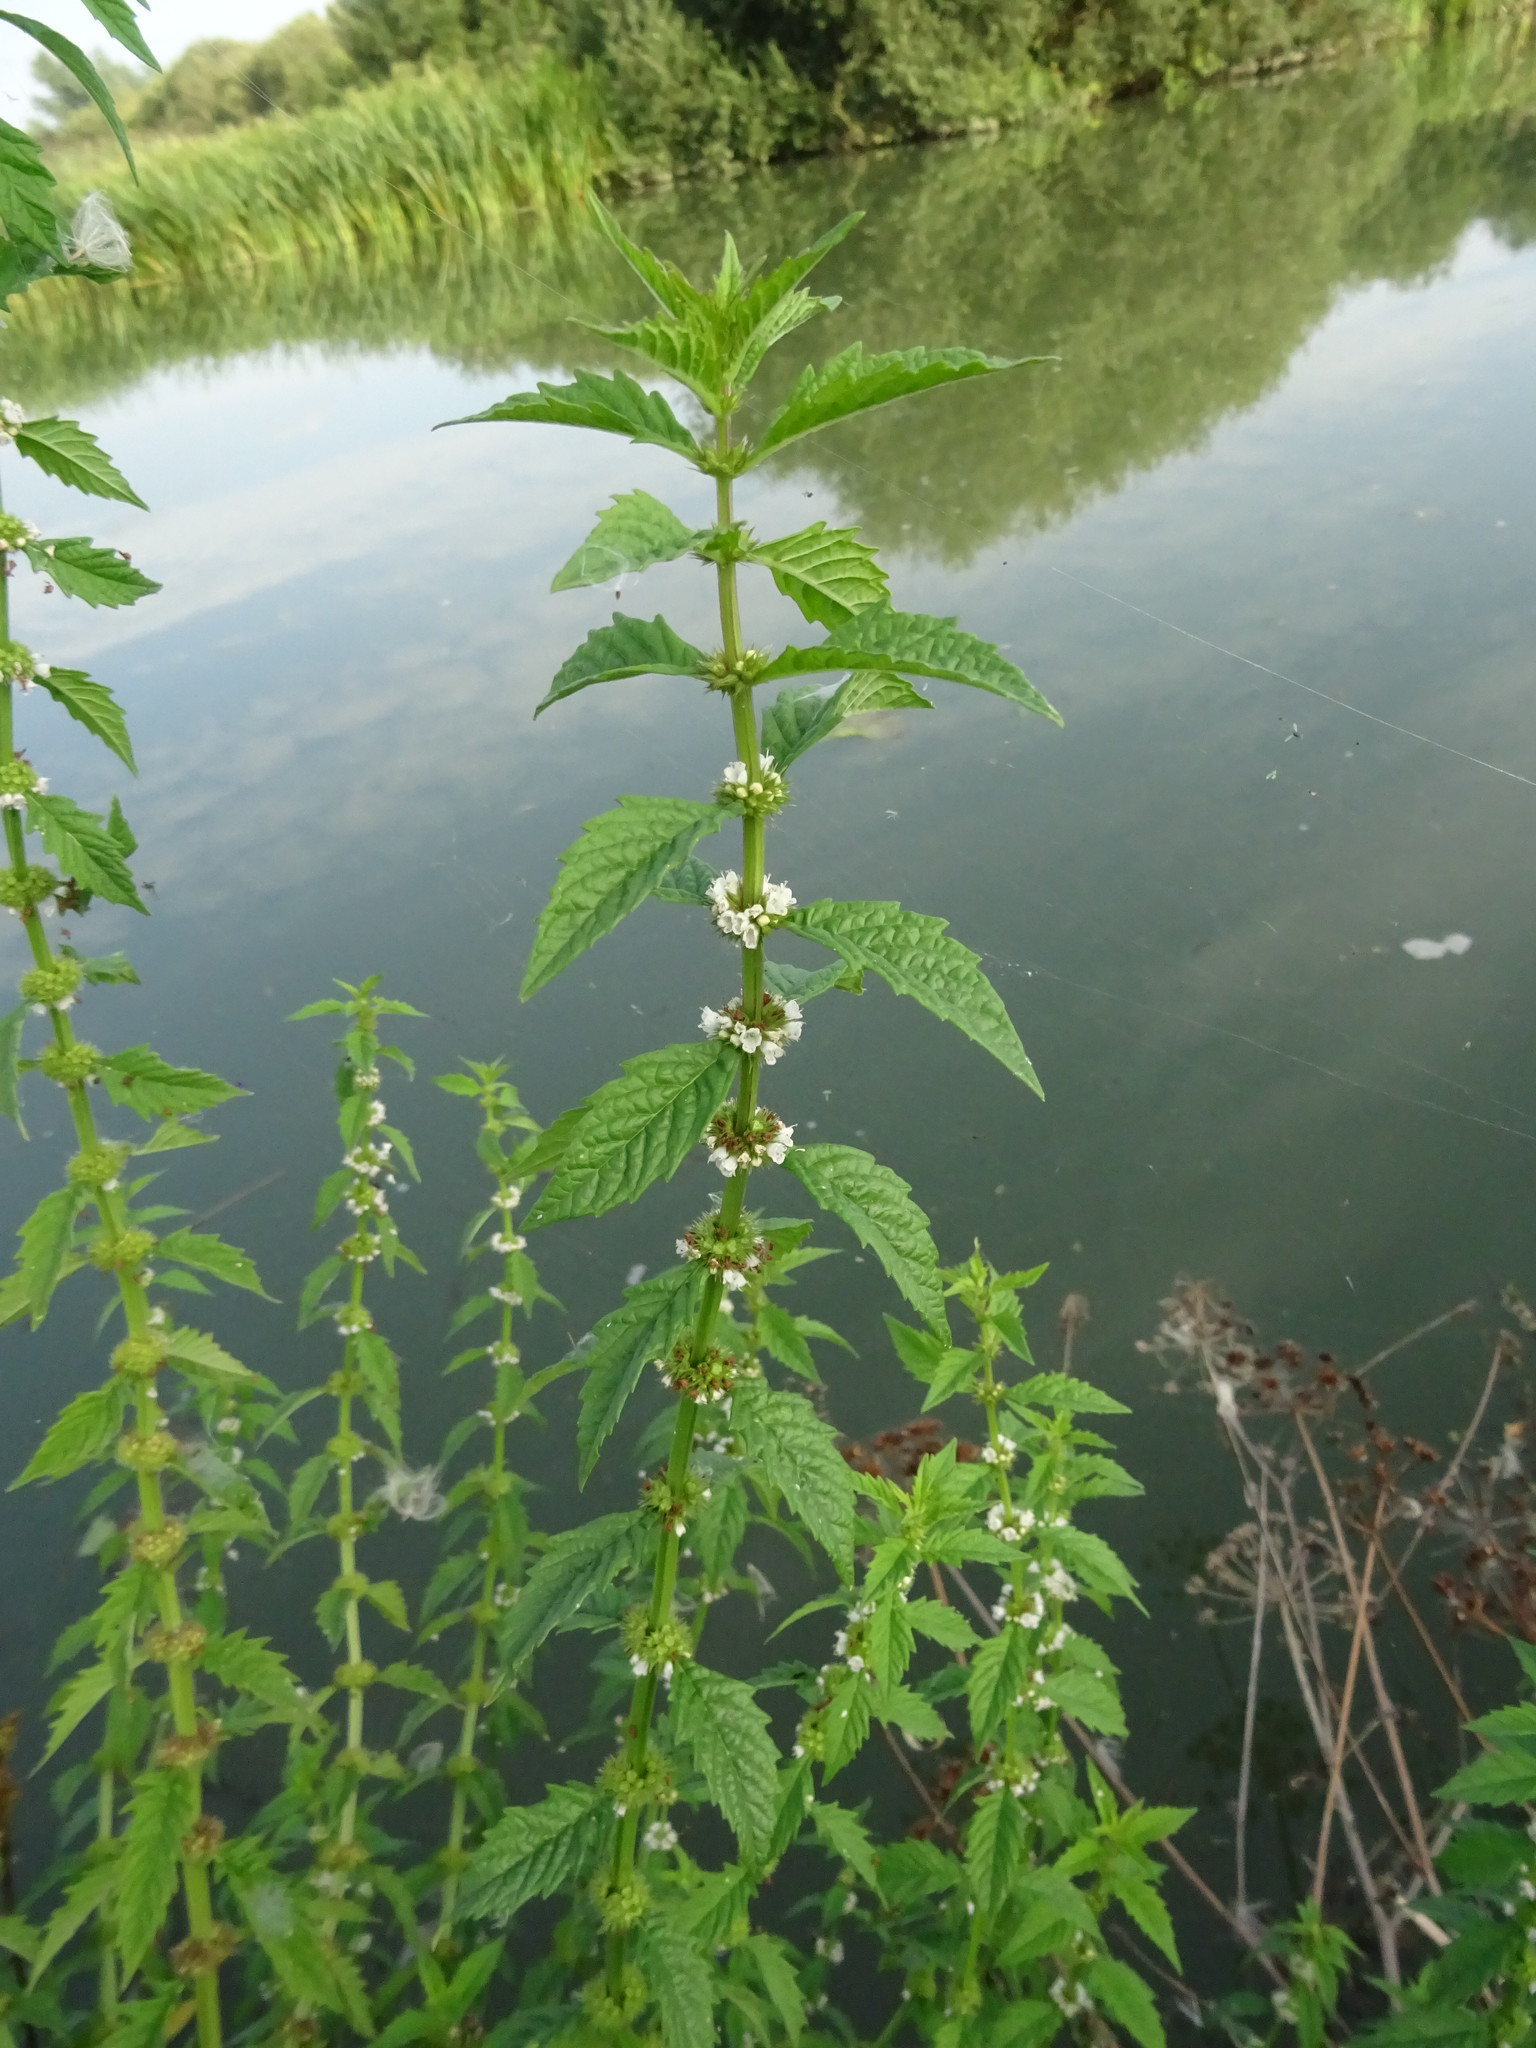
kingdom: Plantae
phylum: Tracheophyta
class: Magnoliopsida
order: Lamiales
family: Lamiaceae
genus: Lycopus
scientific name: Lycopus europaeus
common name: European bugleweed
